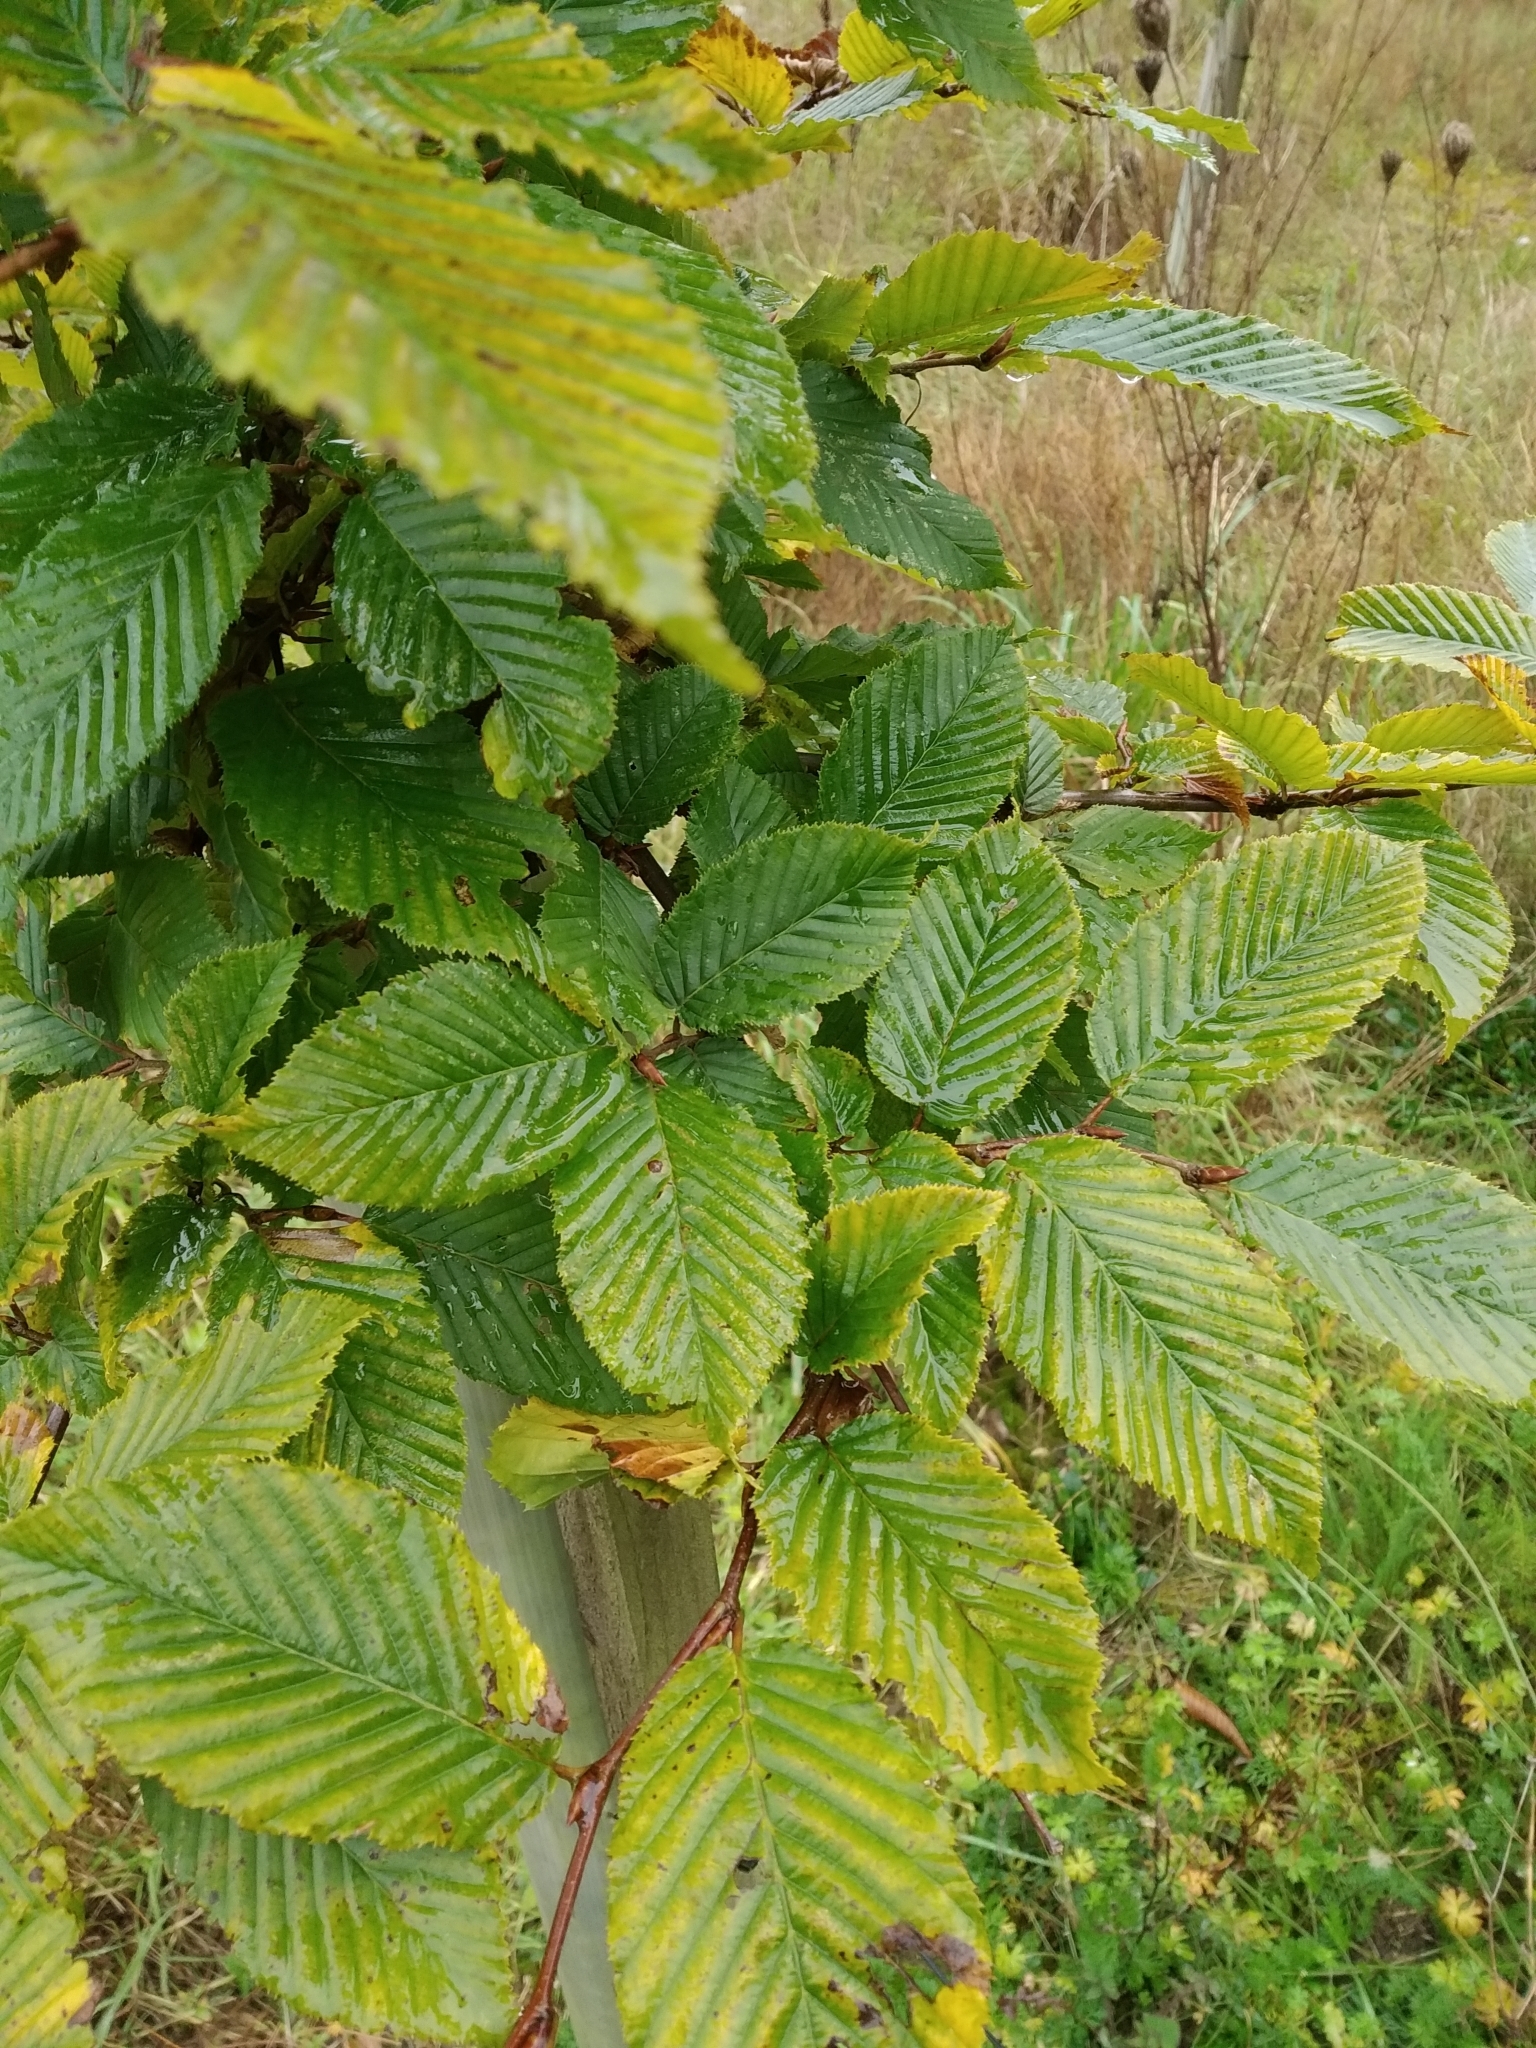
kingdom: Plantae
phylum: Tracheophyta
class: Magnoliopsida
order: Fagales
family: Betulaceae
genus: Carpinus
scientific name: Carpinus betulus
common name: Hornbeam
